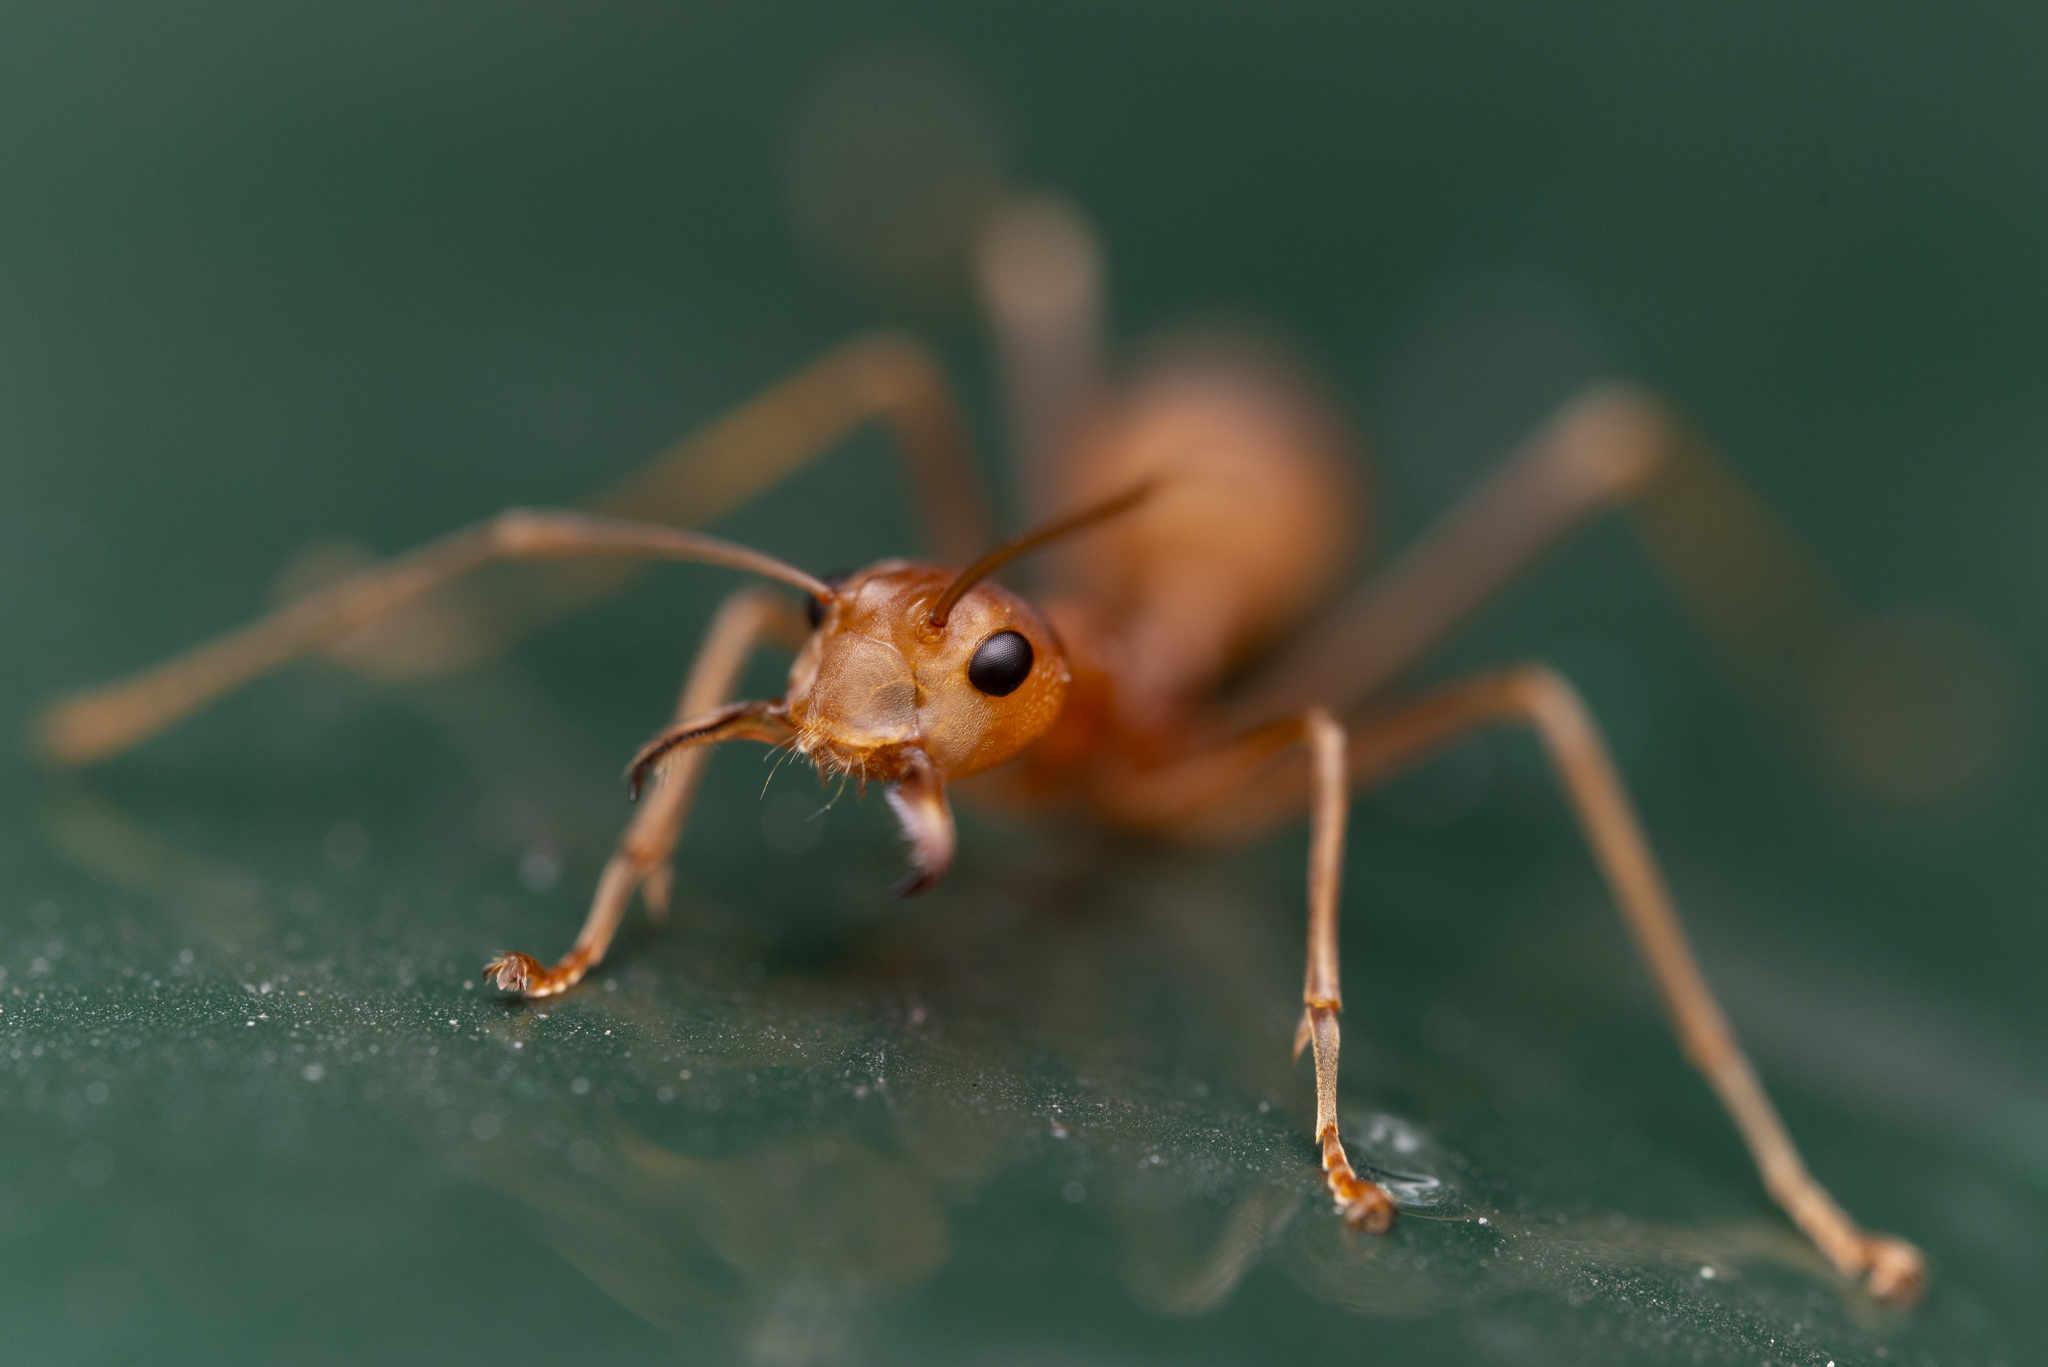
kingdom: Animalia
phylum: Arthropoda
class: Insecta
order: Hymenoptera
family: Formicidae
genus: Oecophylla
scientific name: Oecophylla smaragdina
